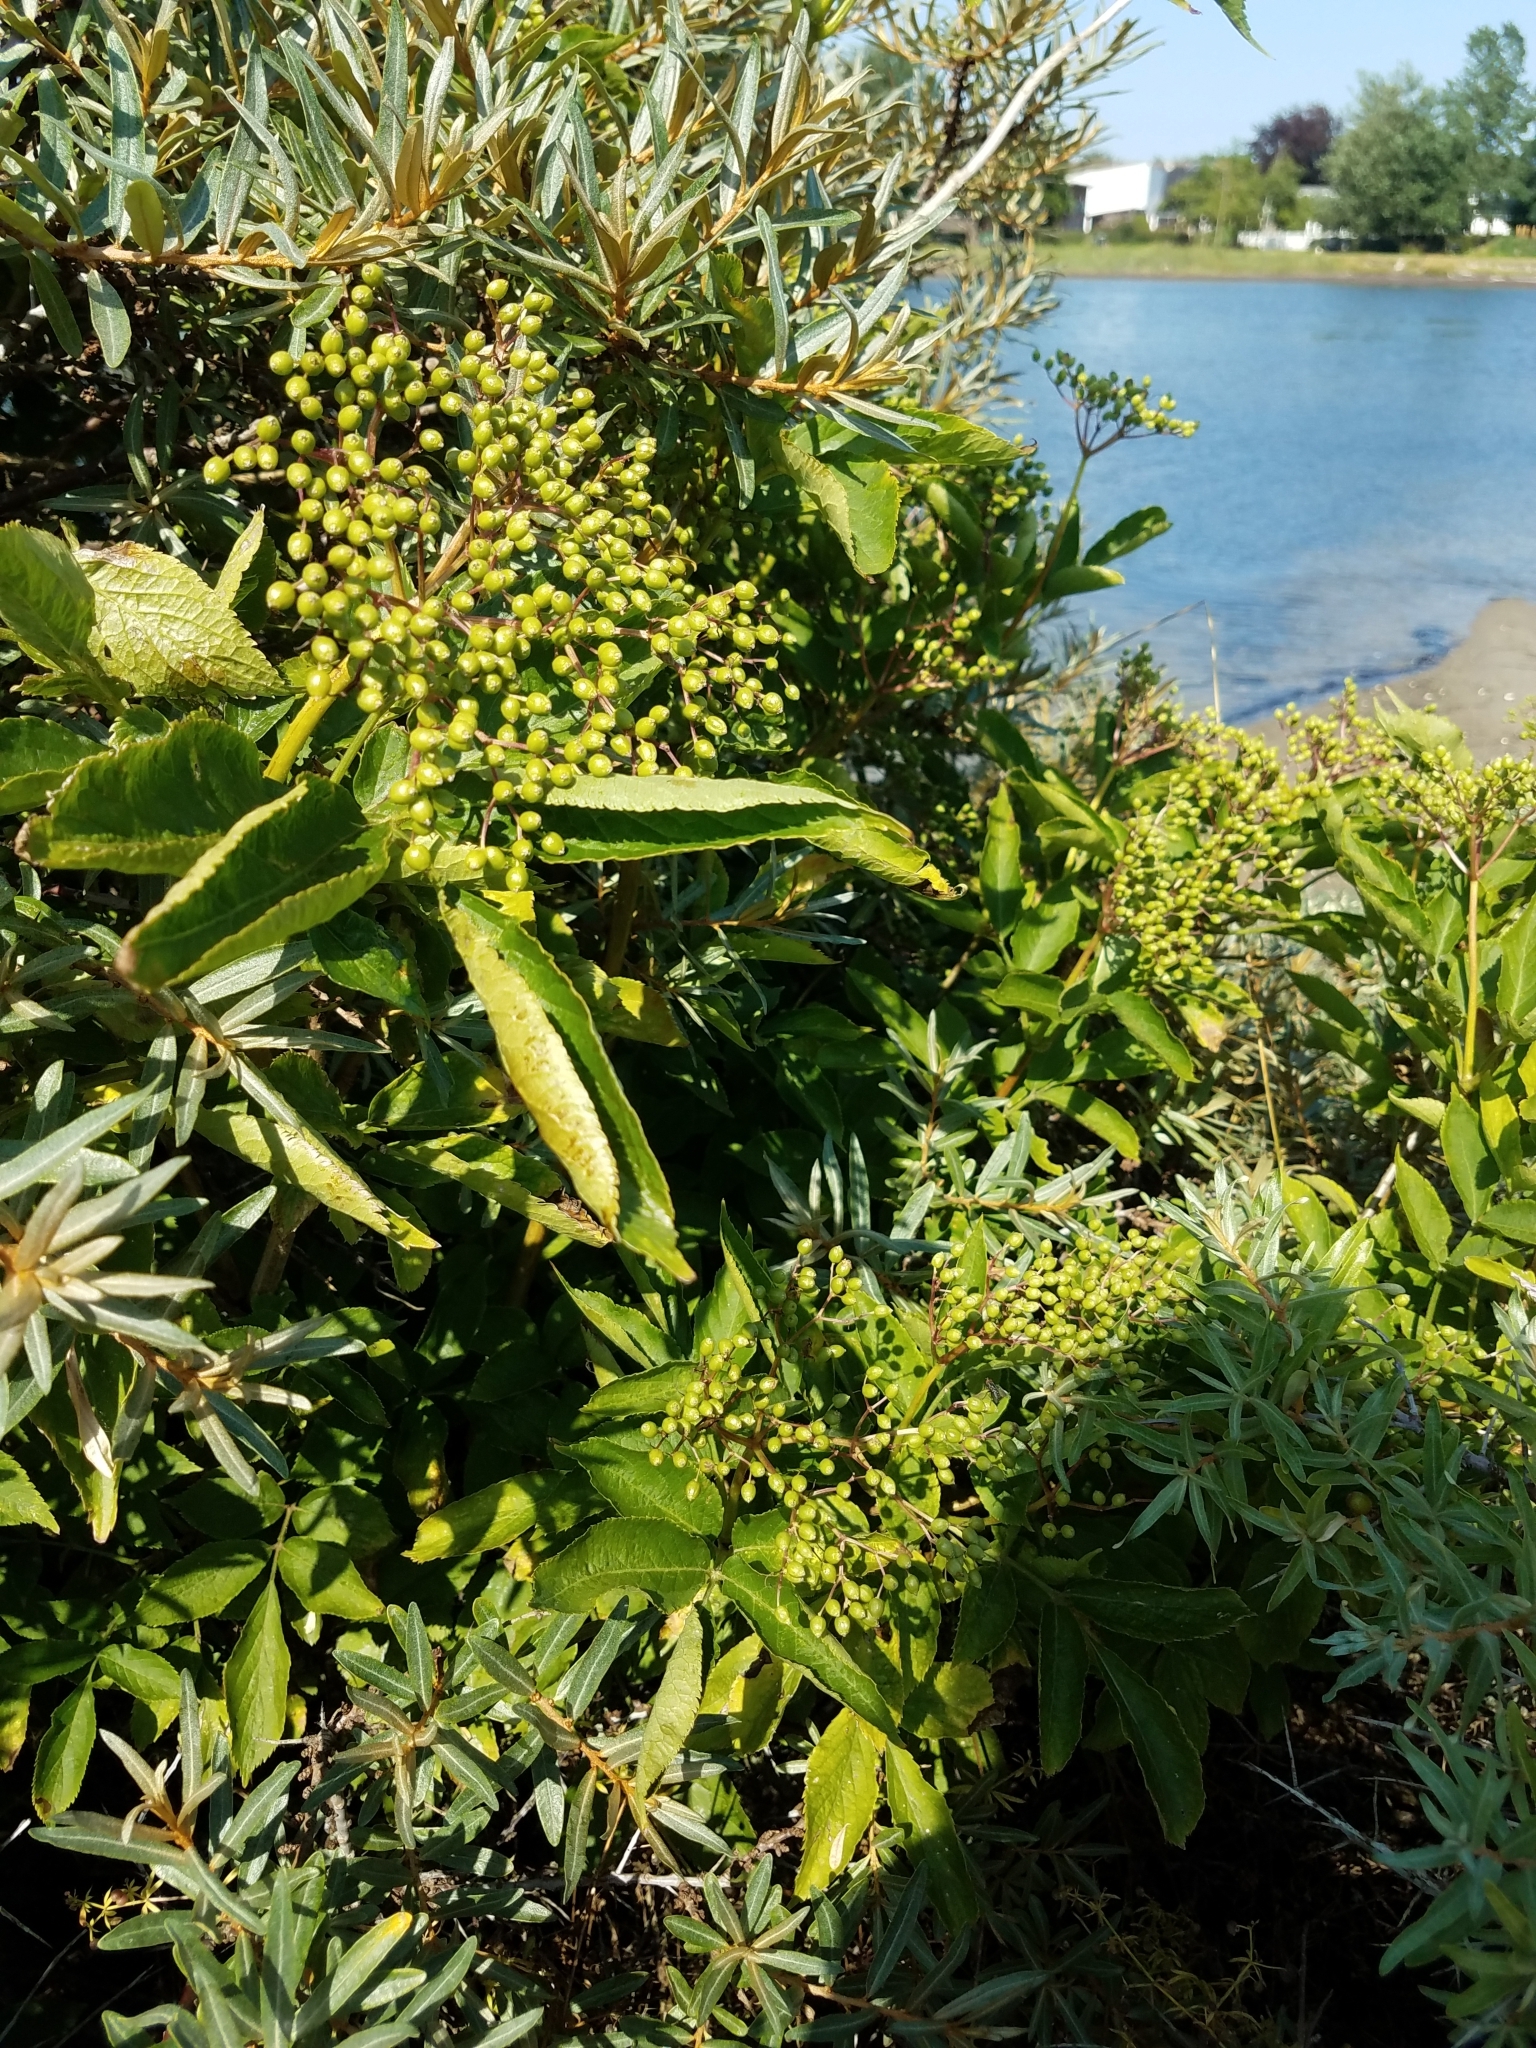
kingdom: Plantae
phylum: Tracheophyta
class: Magnoliopsida
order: Dipsacales
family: Viburnaceae
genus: Sambucus
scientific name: Sambucus nigra
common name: Elder
